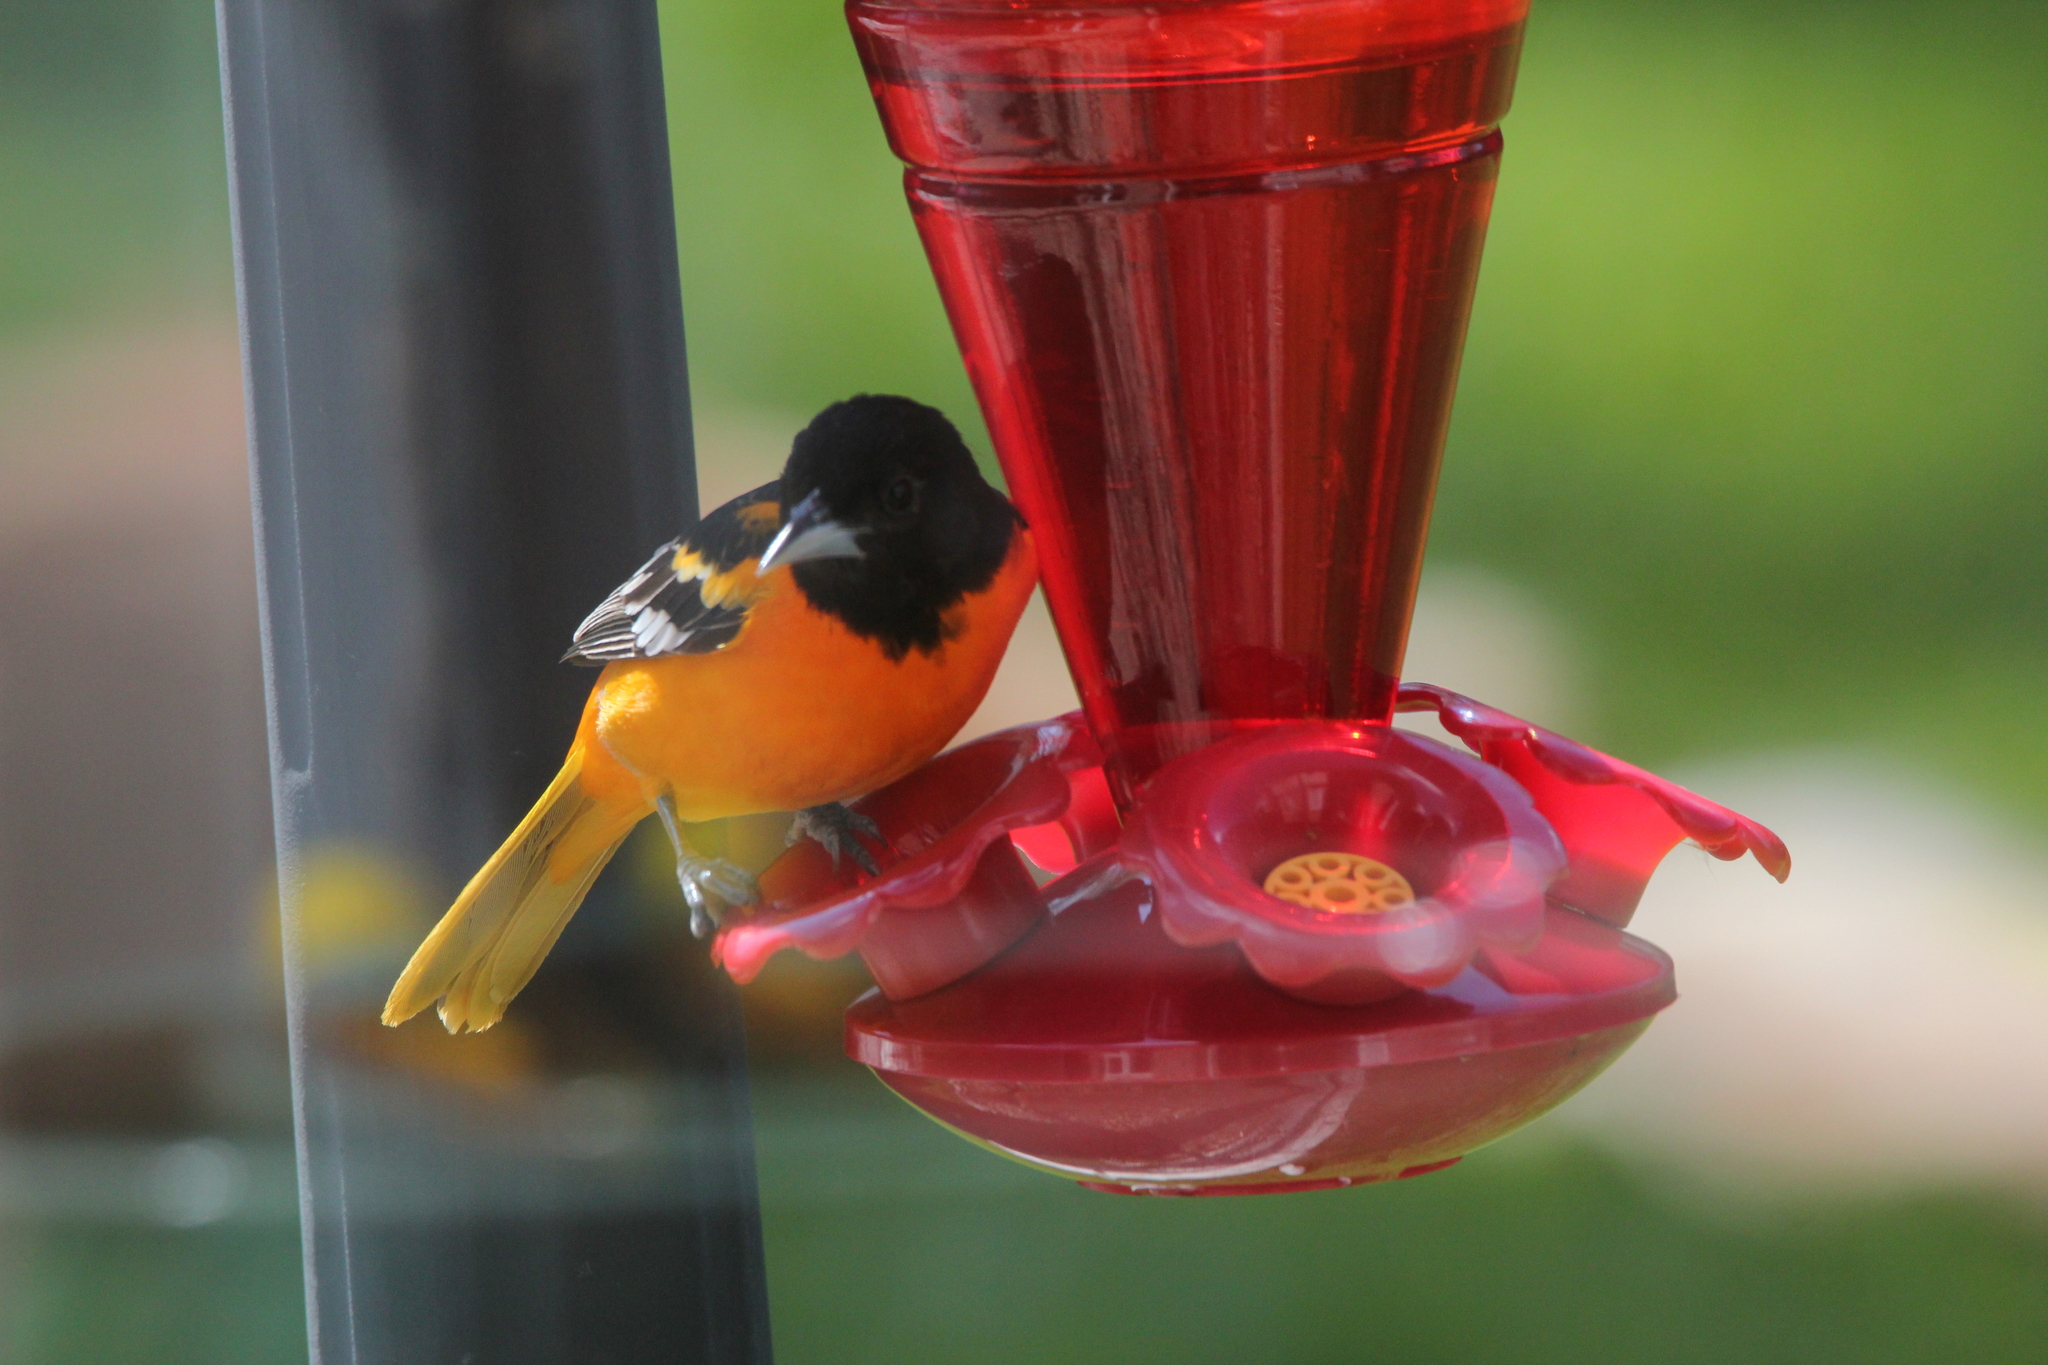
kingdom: Animalia
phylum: Chordata
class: Aves
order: Passeriformes
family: Icteridae
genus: Icterus
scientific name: Icterus galbula
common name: Baltimore oriole
